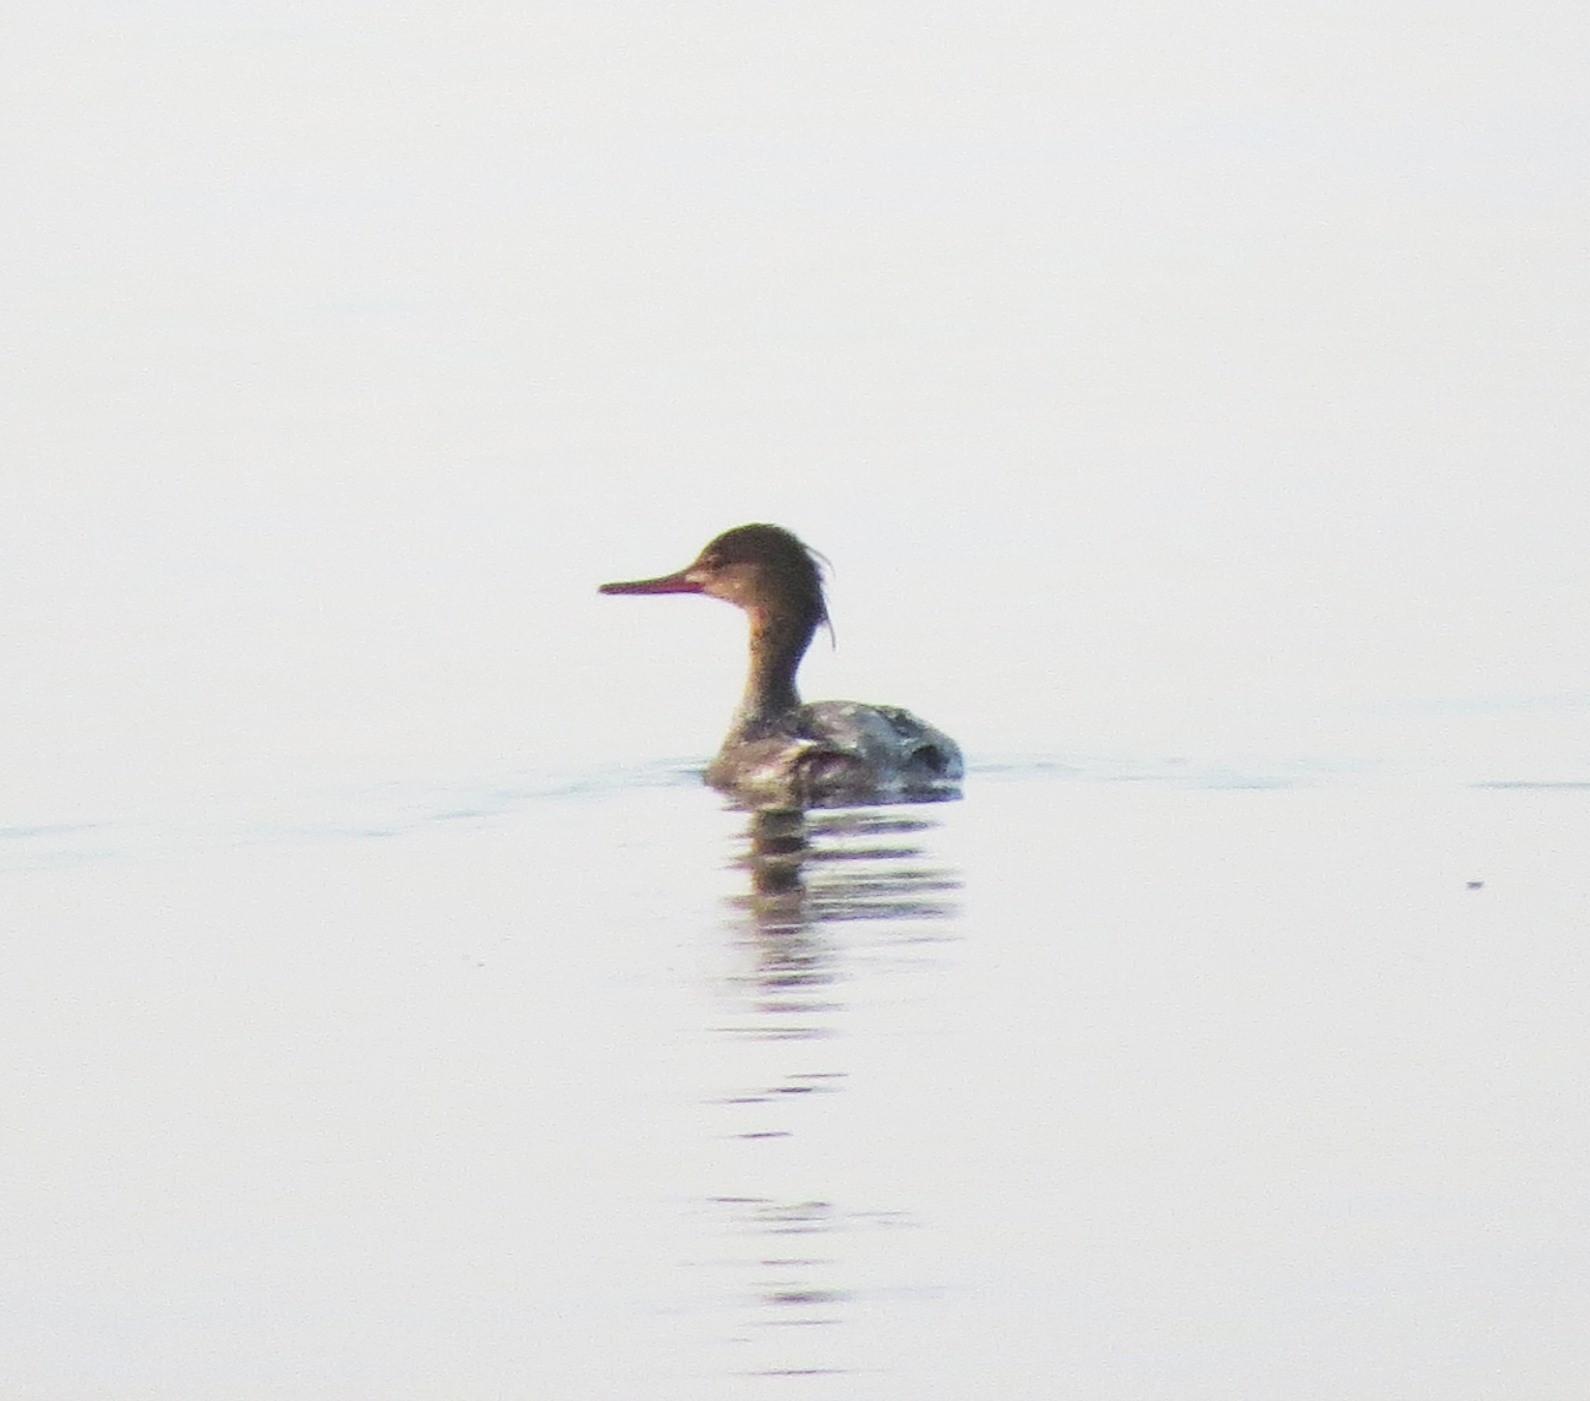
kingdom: Animalia
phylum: Chordata
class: Aves
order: Anseriformes
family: Anatidae
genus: Mergus
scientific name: Mergus serrator
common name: Red-breasted merganser
